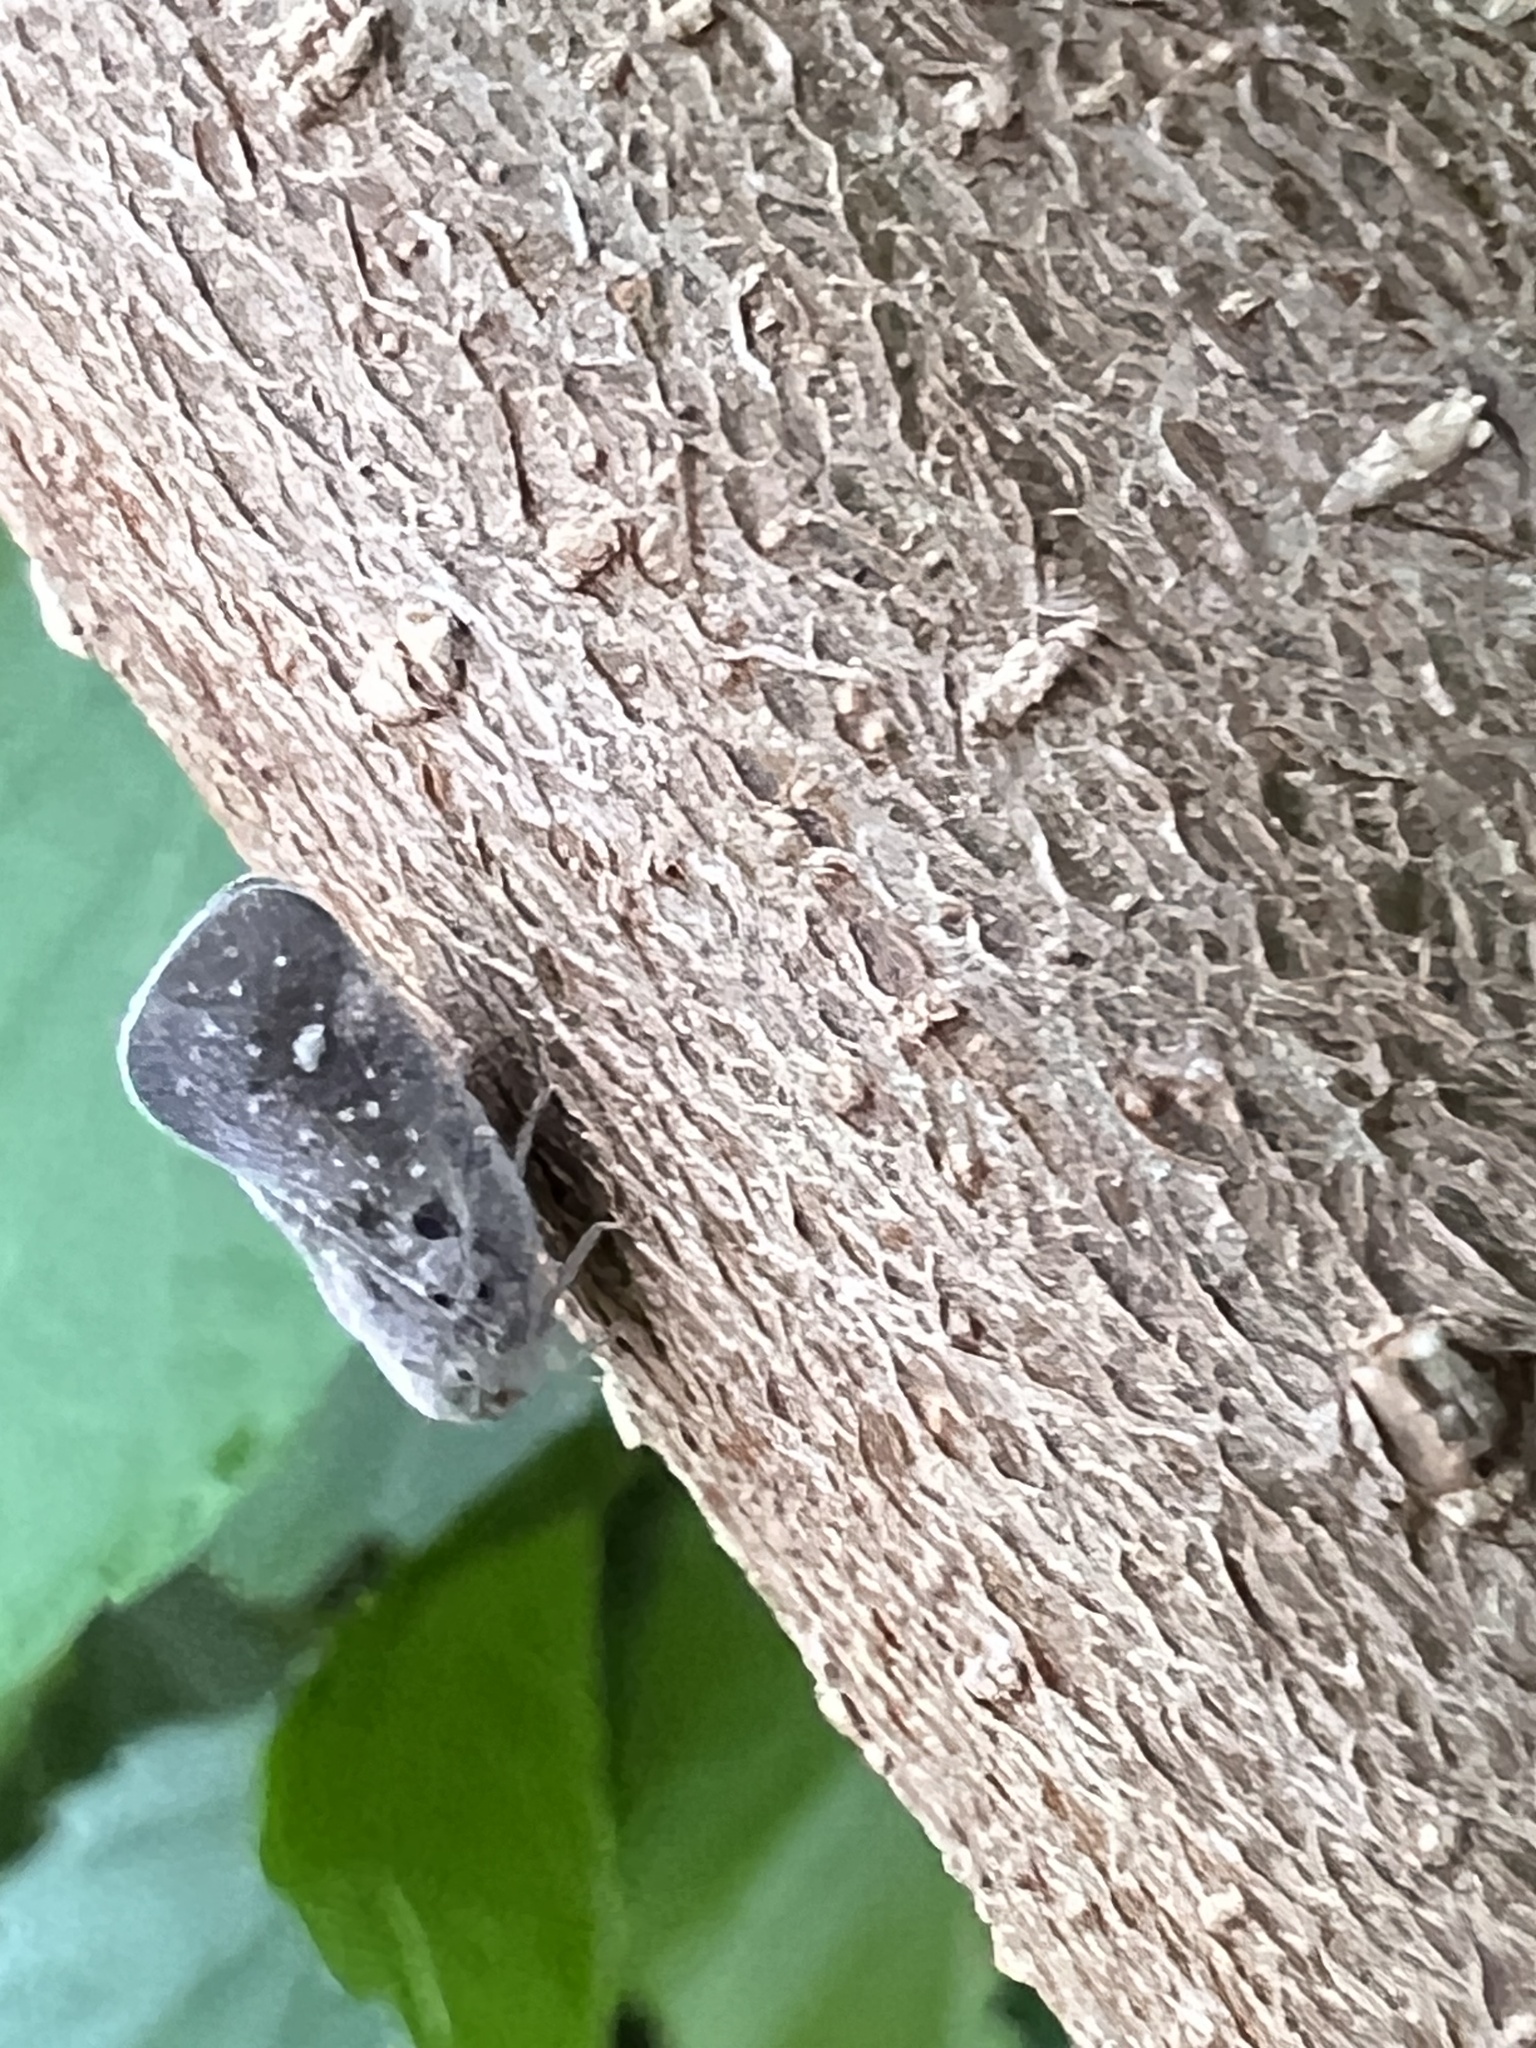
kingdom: Animalia
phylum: Arthropoda
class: Insecta
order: Hemiptera
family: Flatidae
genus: Metcalfa
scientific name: Metcalfa pruinosa
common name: Citrus flatid planthopper
